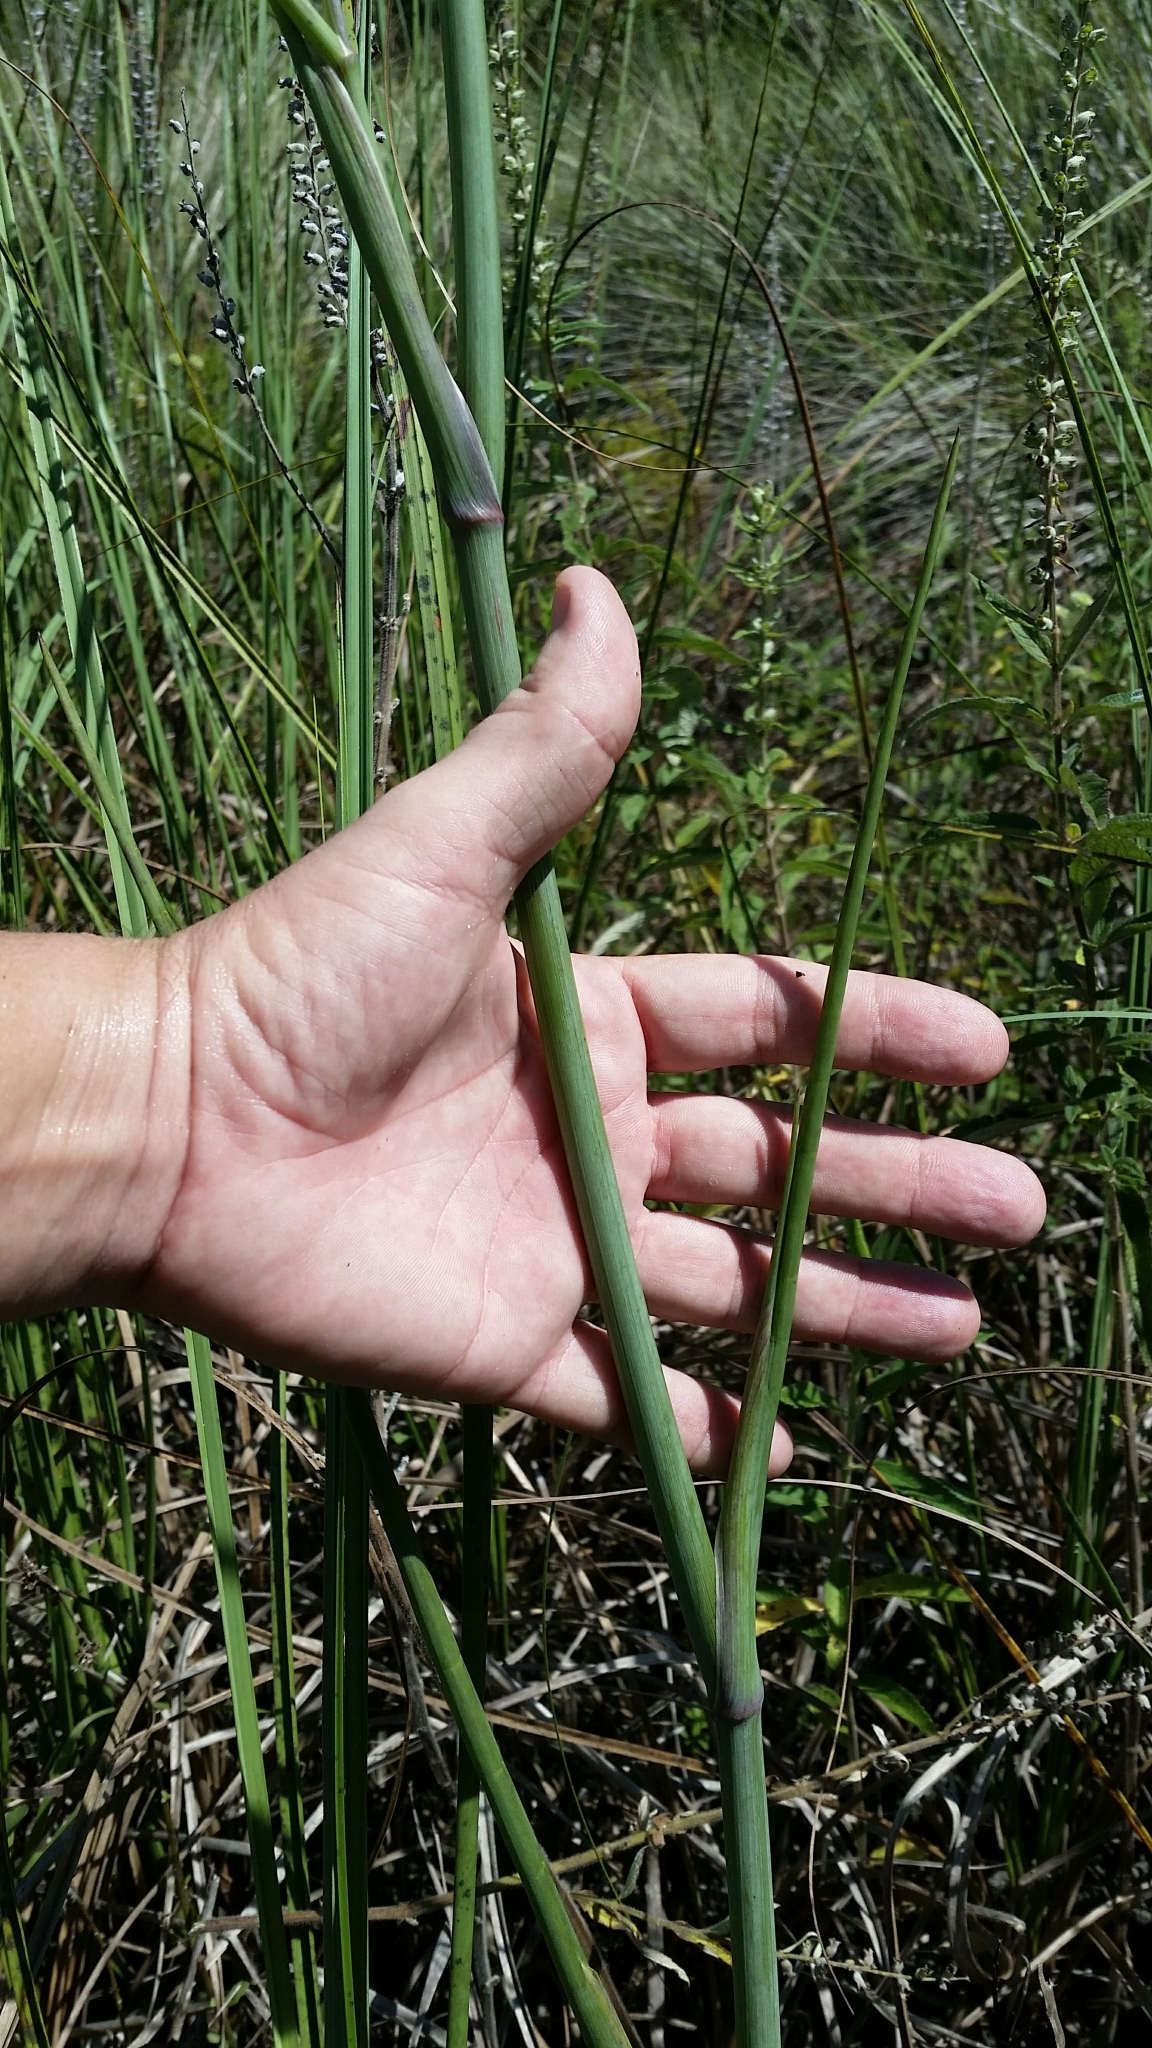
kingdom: Plantae
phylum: Tracheophyta
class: Magnoliopsida
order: Apiales
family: Apiaceae
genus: Tiedemannia
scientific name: Tiedemannia filiformis
